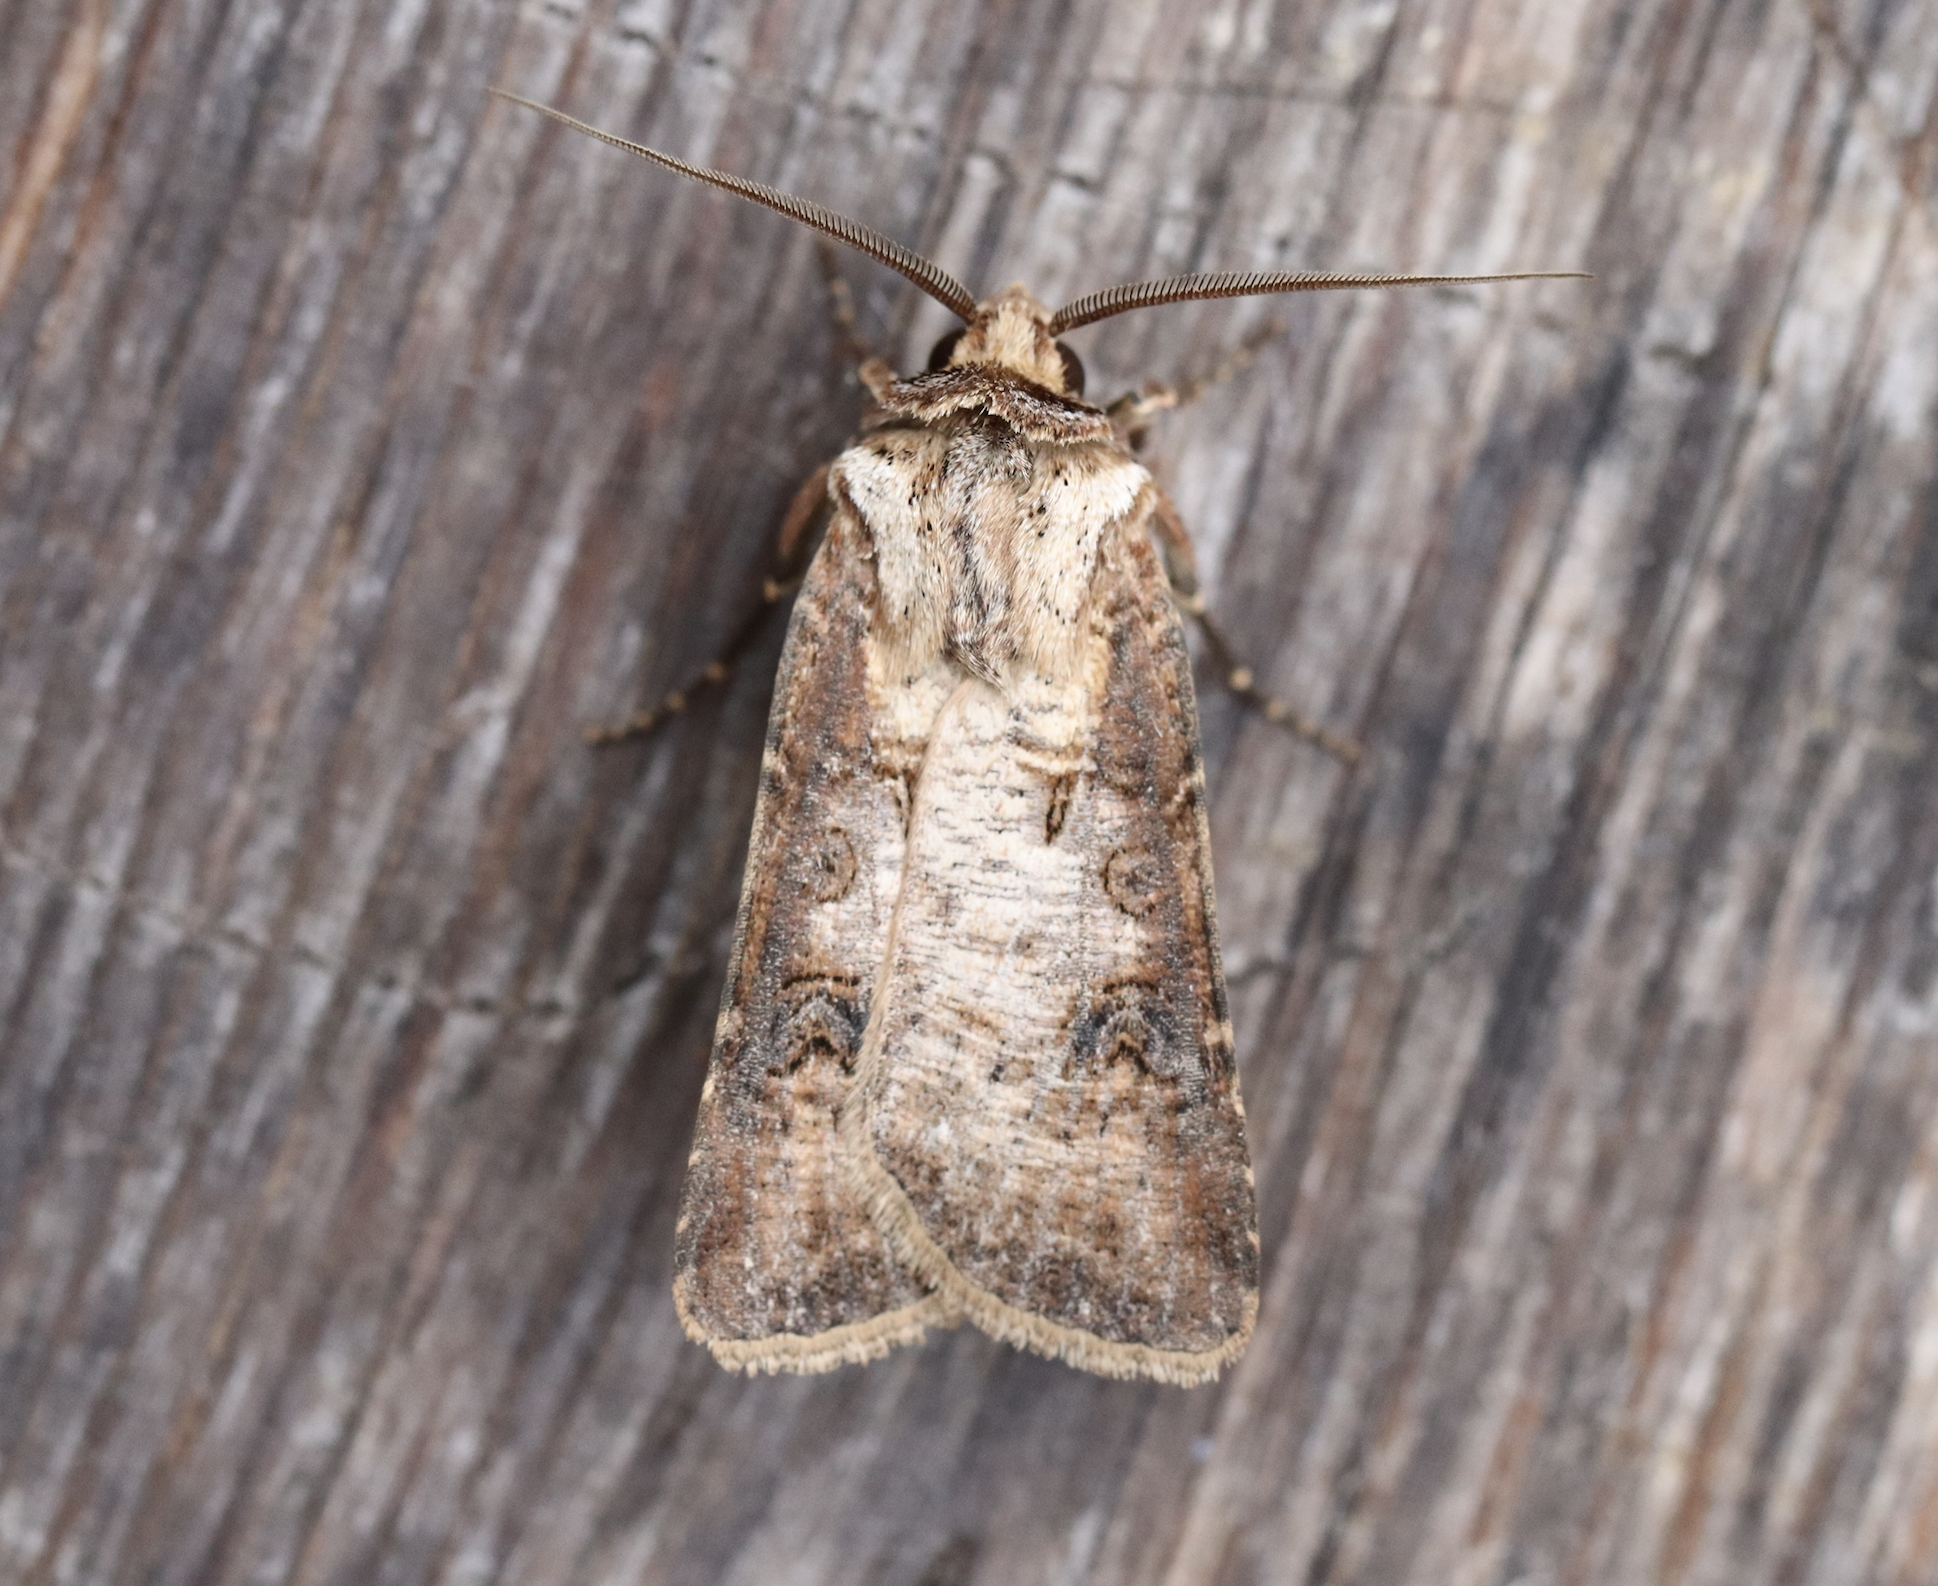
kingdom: Animalia
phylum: Arthropoda
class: Insecta
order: Lepidoptera
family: Noctuidae
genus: Agrotis
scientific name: Agrotis clavis
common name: Heart and club
